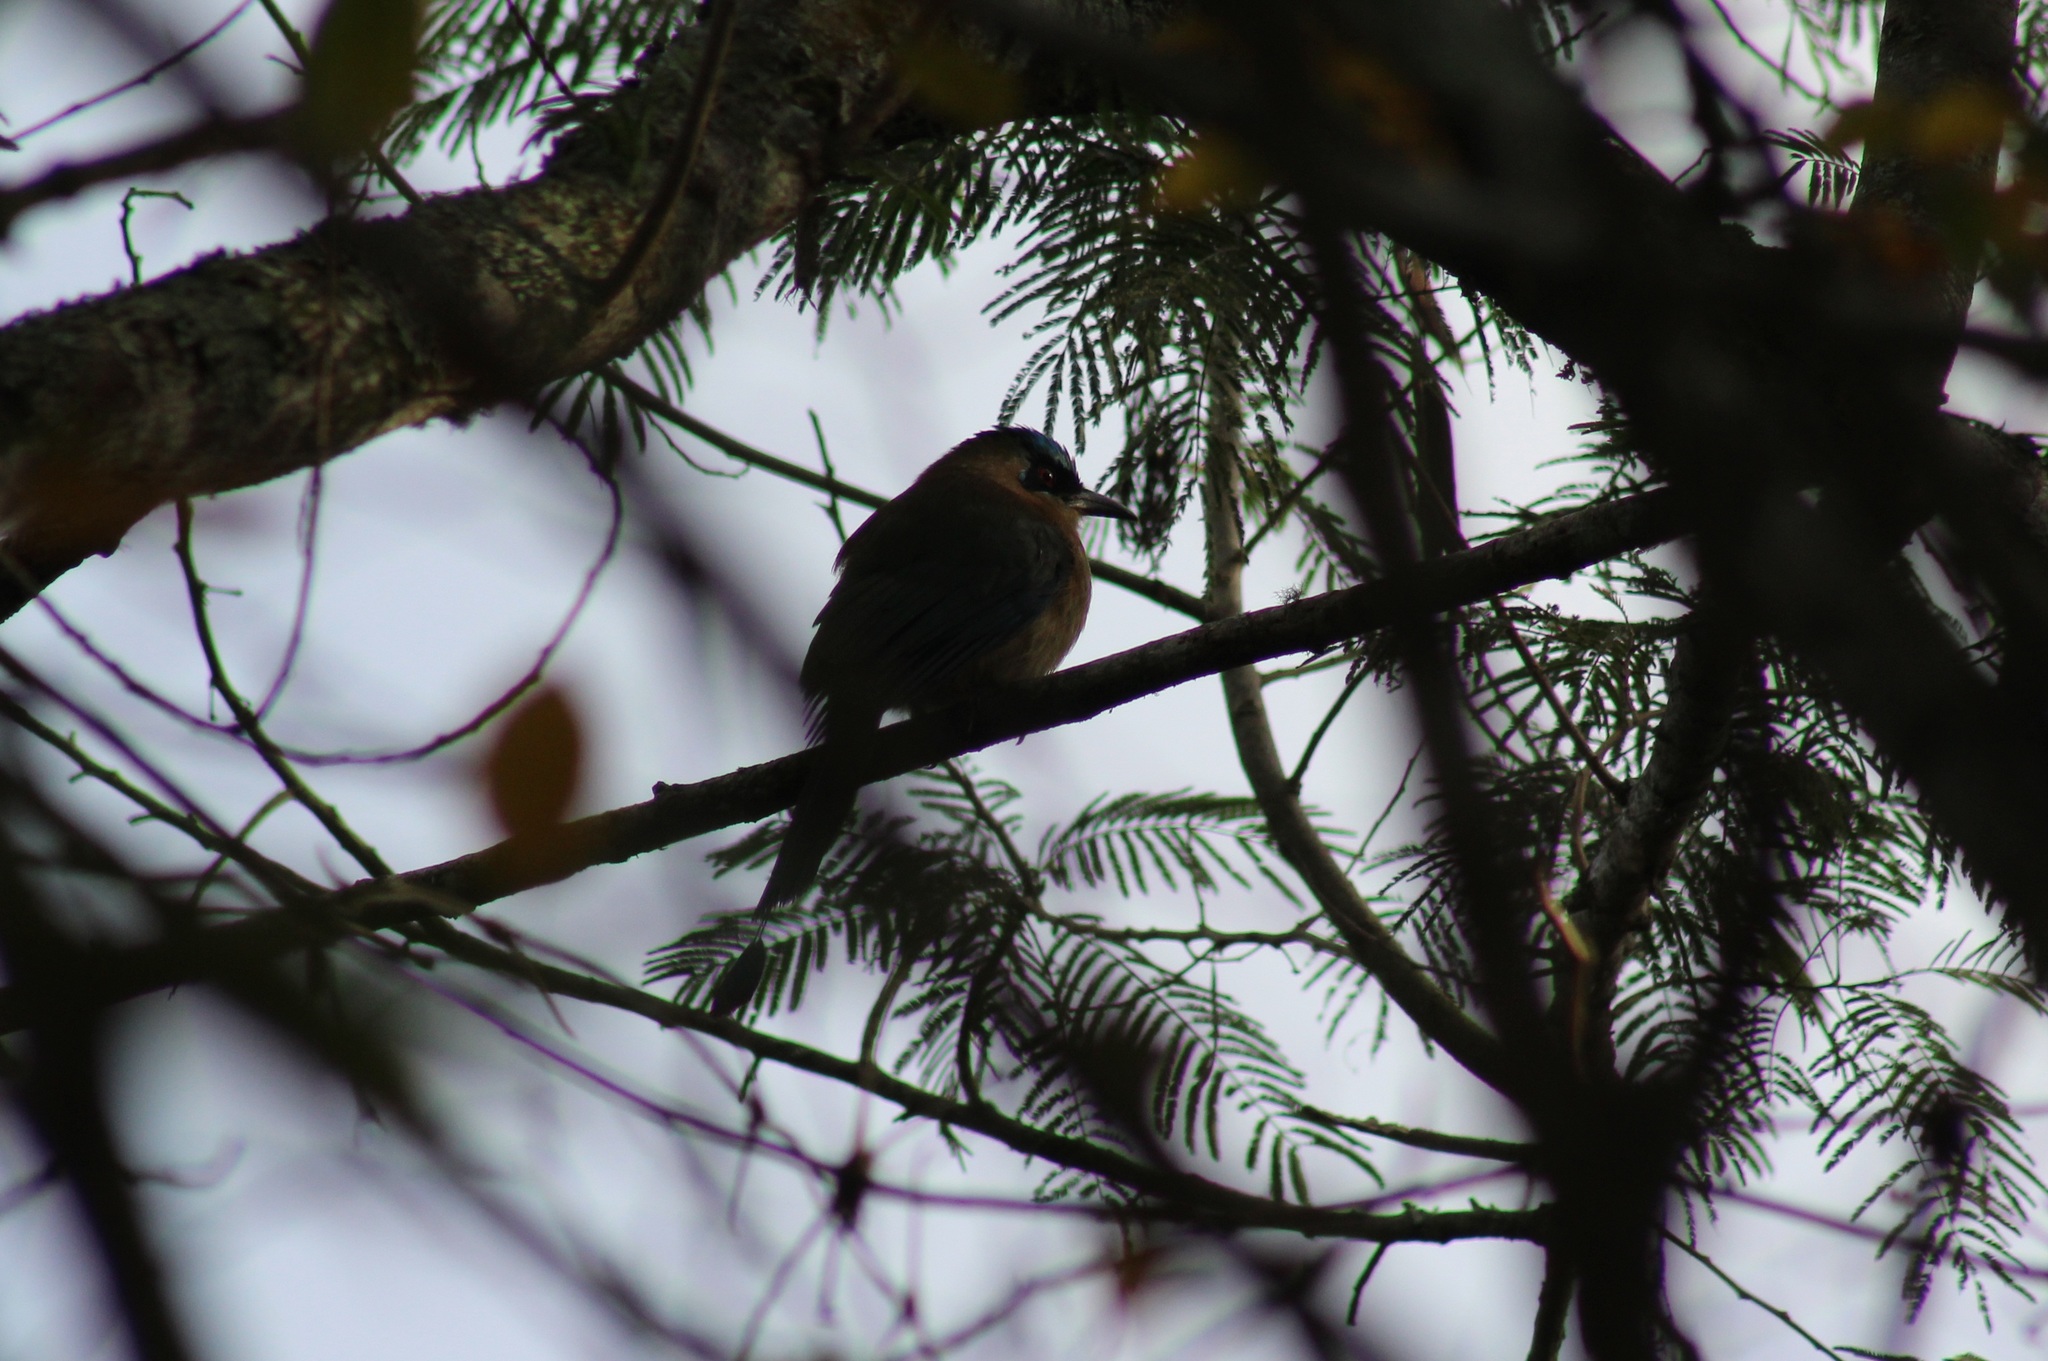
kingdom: Animalia
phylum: Chordata
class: Aves
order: Coraciiformes
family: Momotidae
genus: Momotus
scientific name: Momotus coeruliceps
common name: Blue-capped motmot
